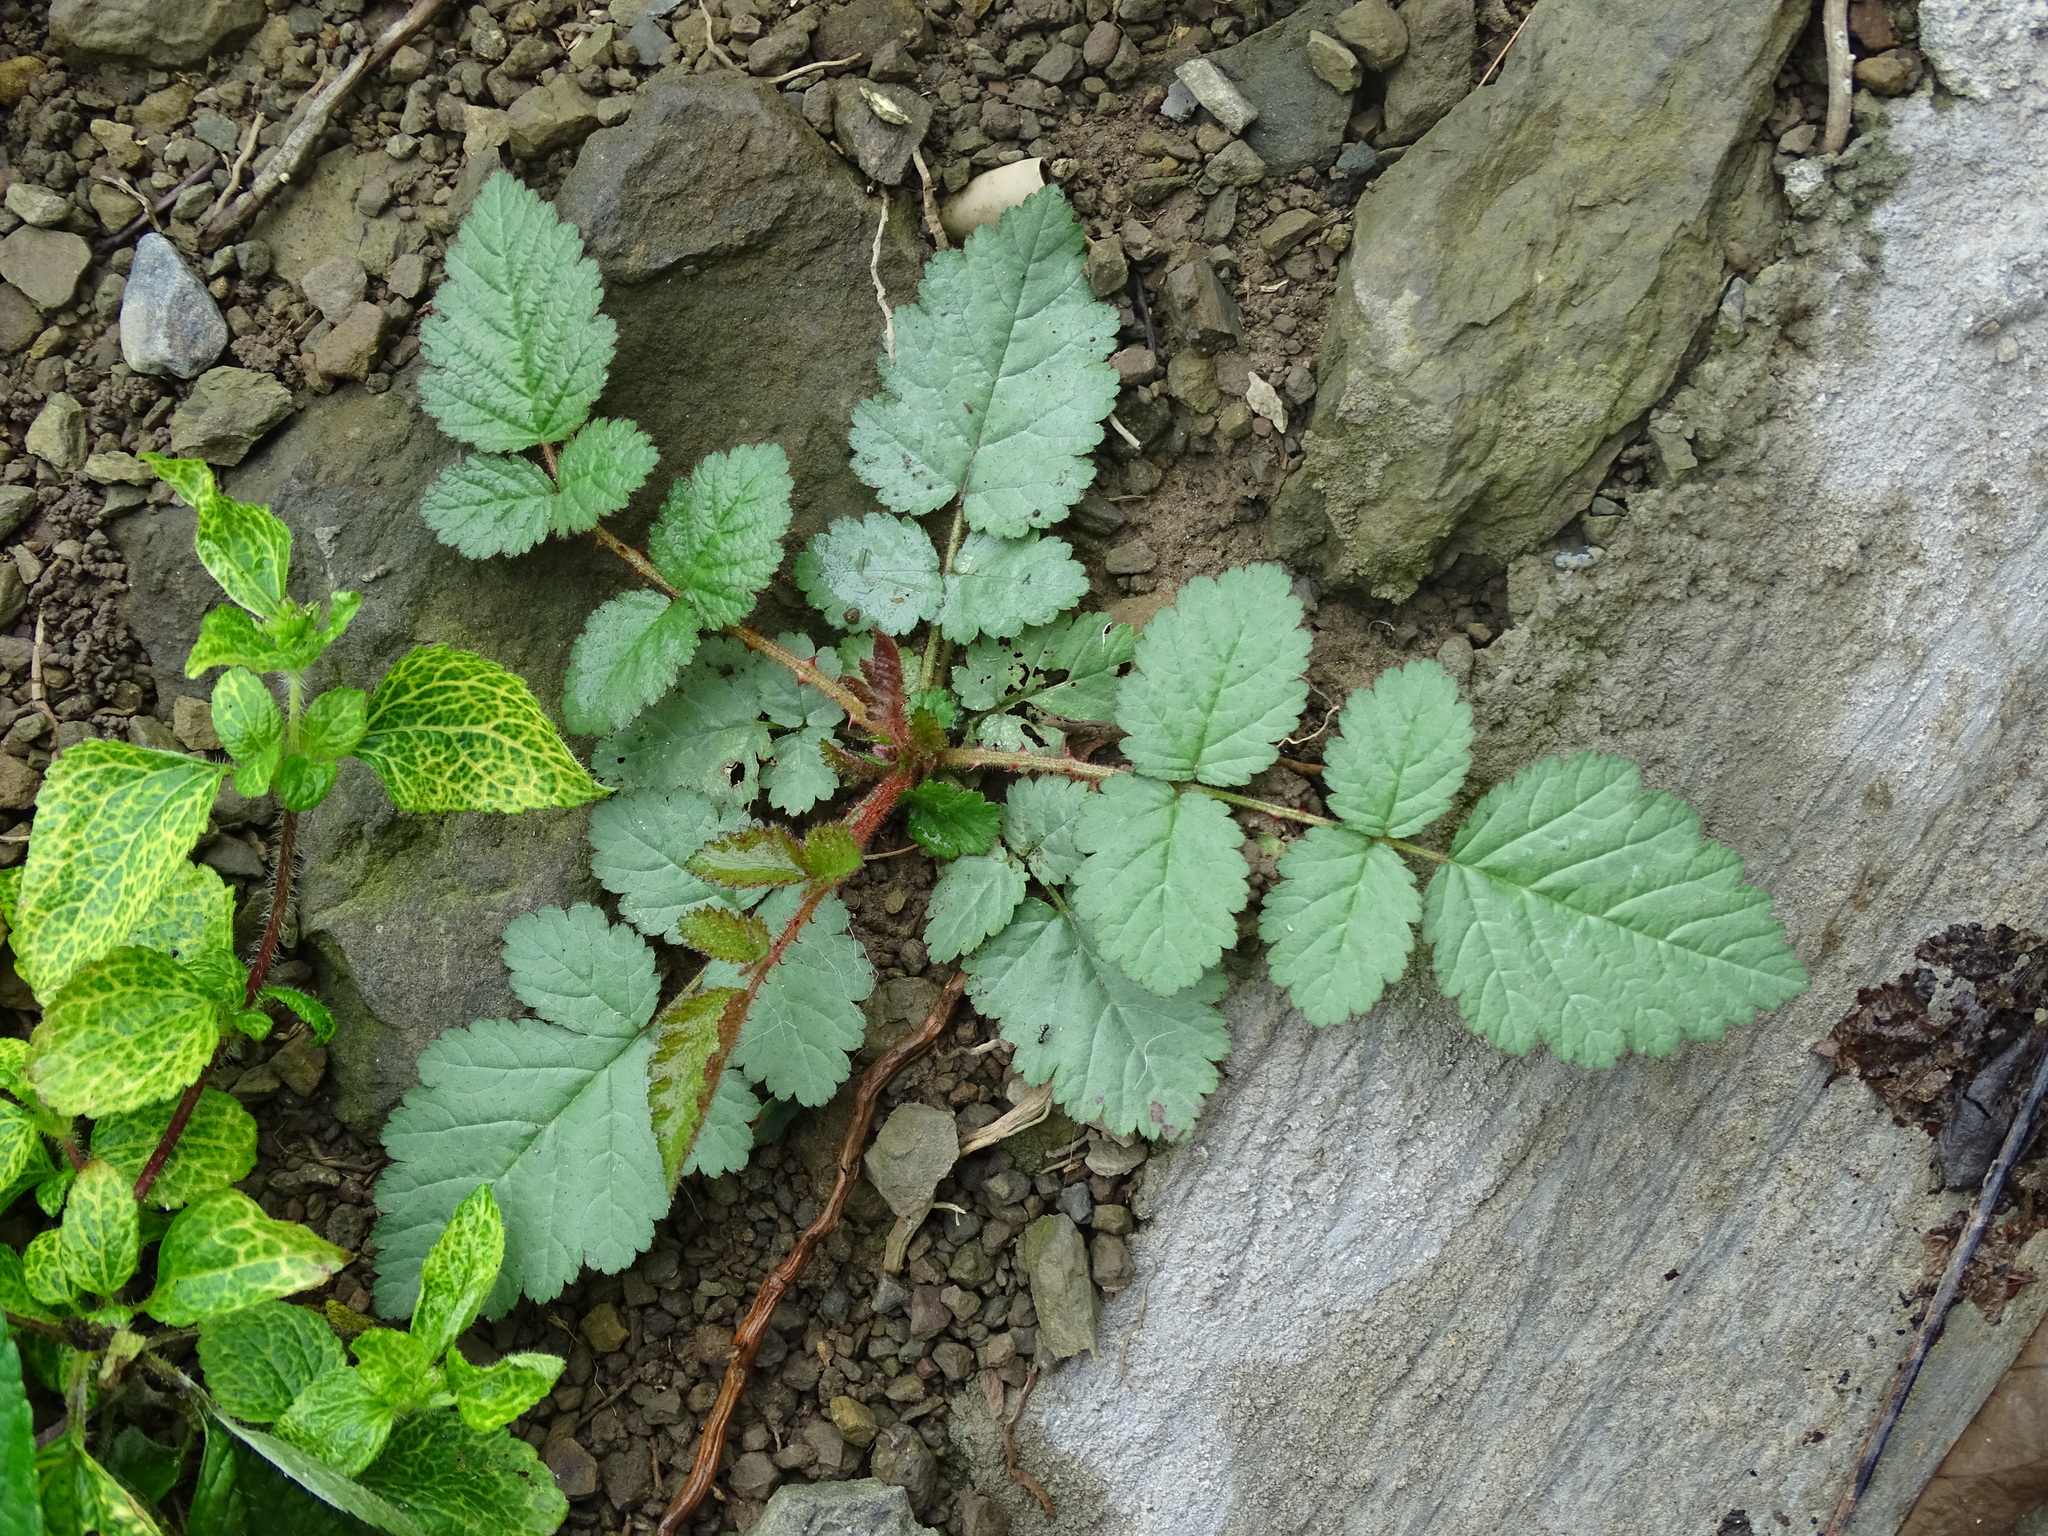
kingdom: Plantae
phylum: Tracheophyta
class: Magnoliopsida
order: Rosales
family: Rosaceae
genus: Rubus
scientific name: Rubus croceacanthus
